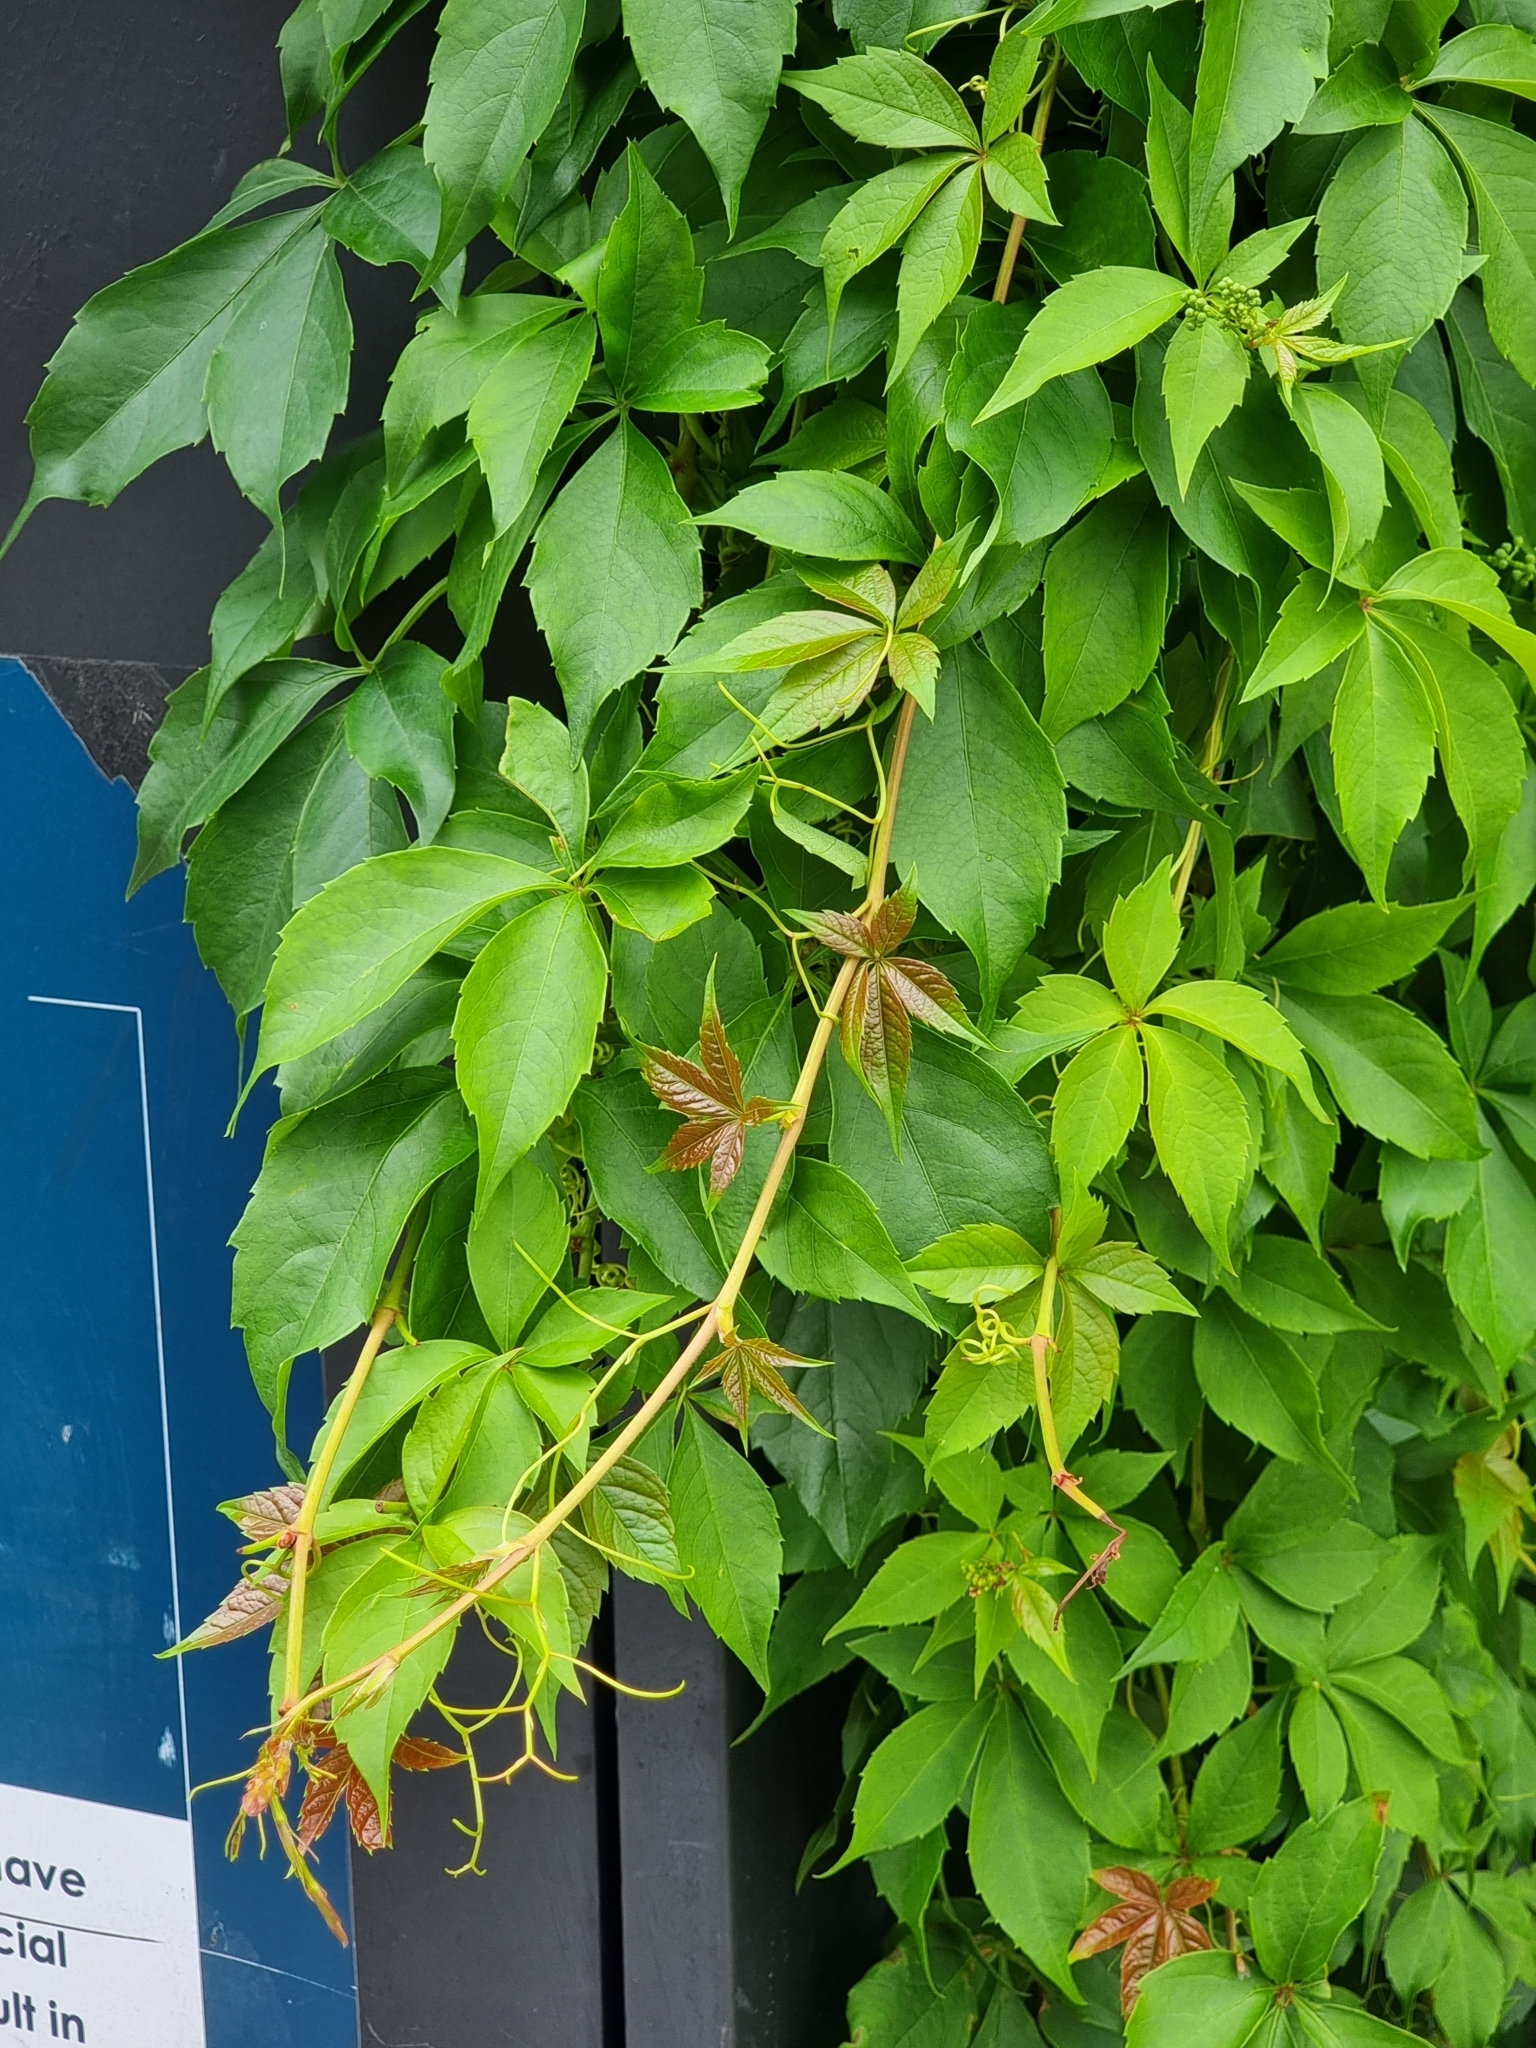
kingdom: Plantae
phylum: Tracheophyta
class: Magnoliopsida
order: Vitales
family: Vitaceae
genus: Parthenocissus
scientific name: Parthenocissus quinquefolia
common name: Virginia-creeper
